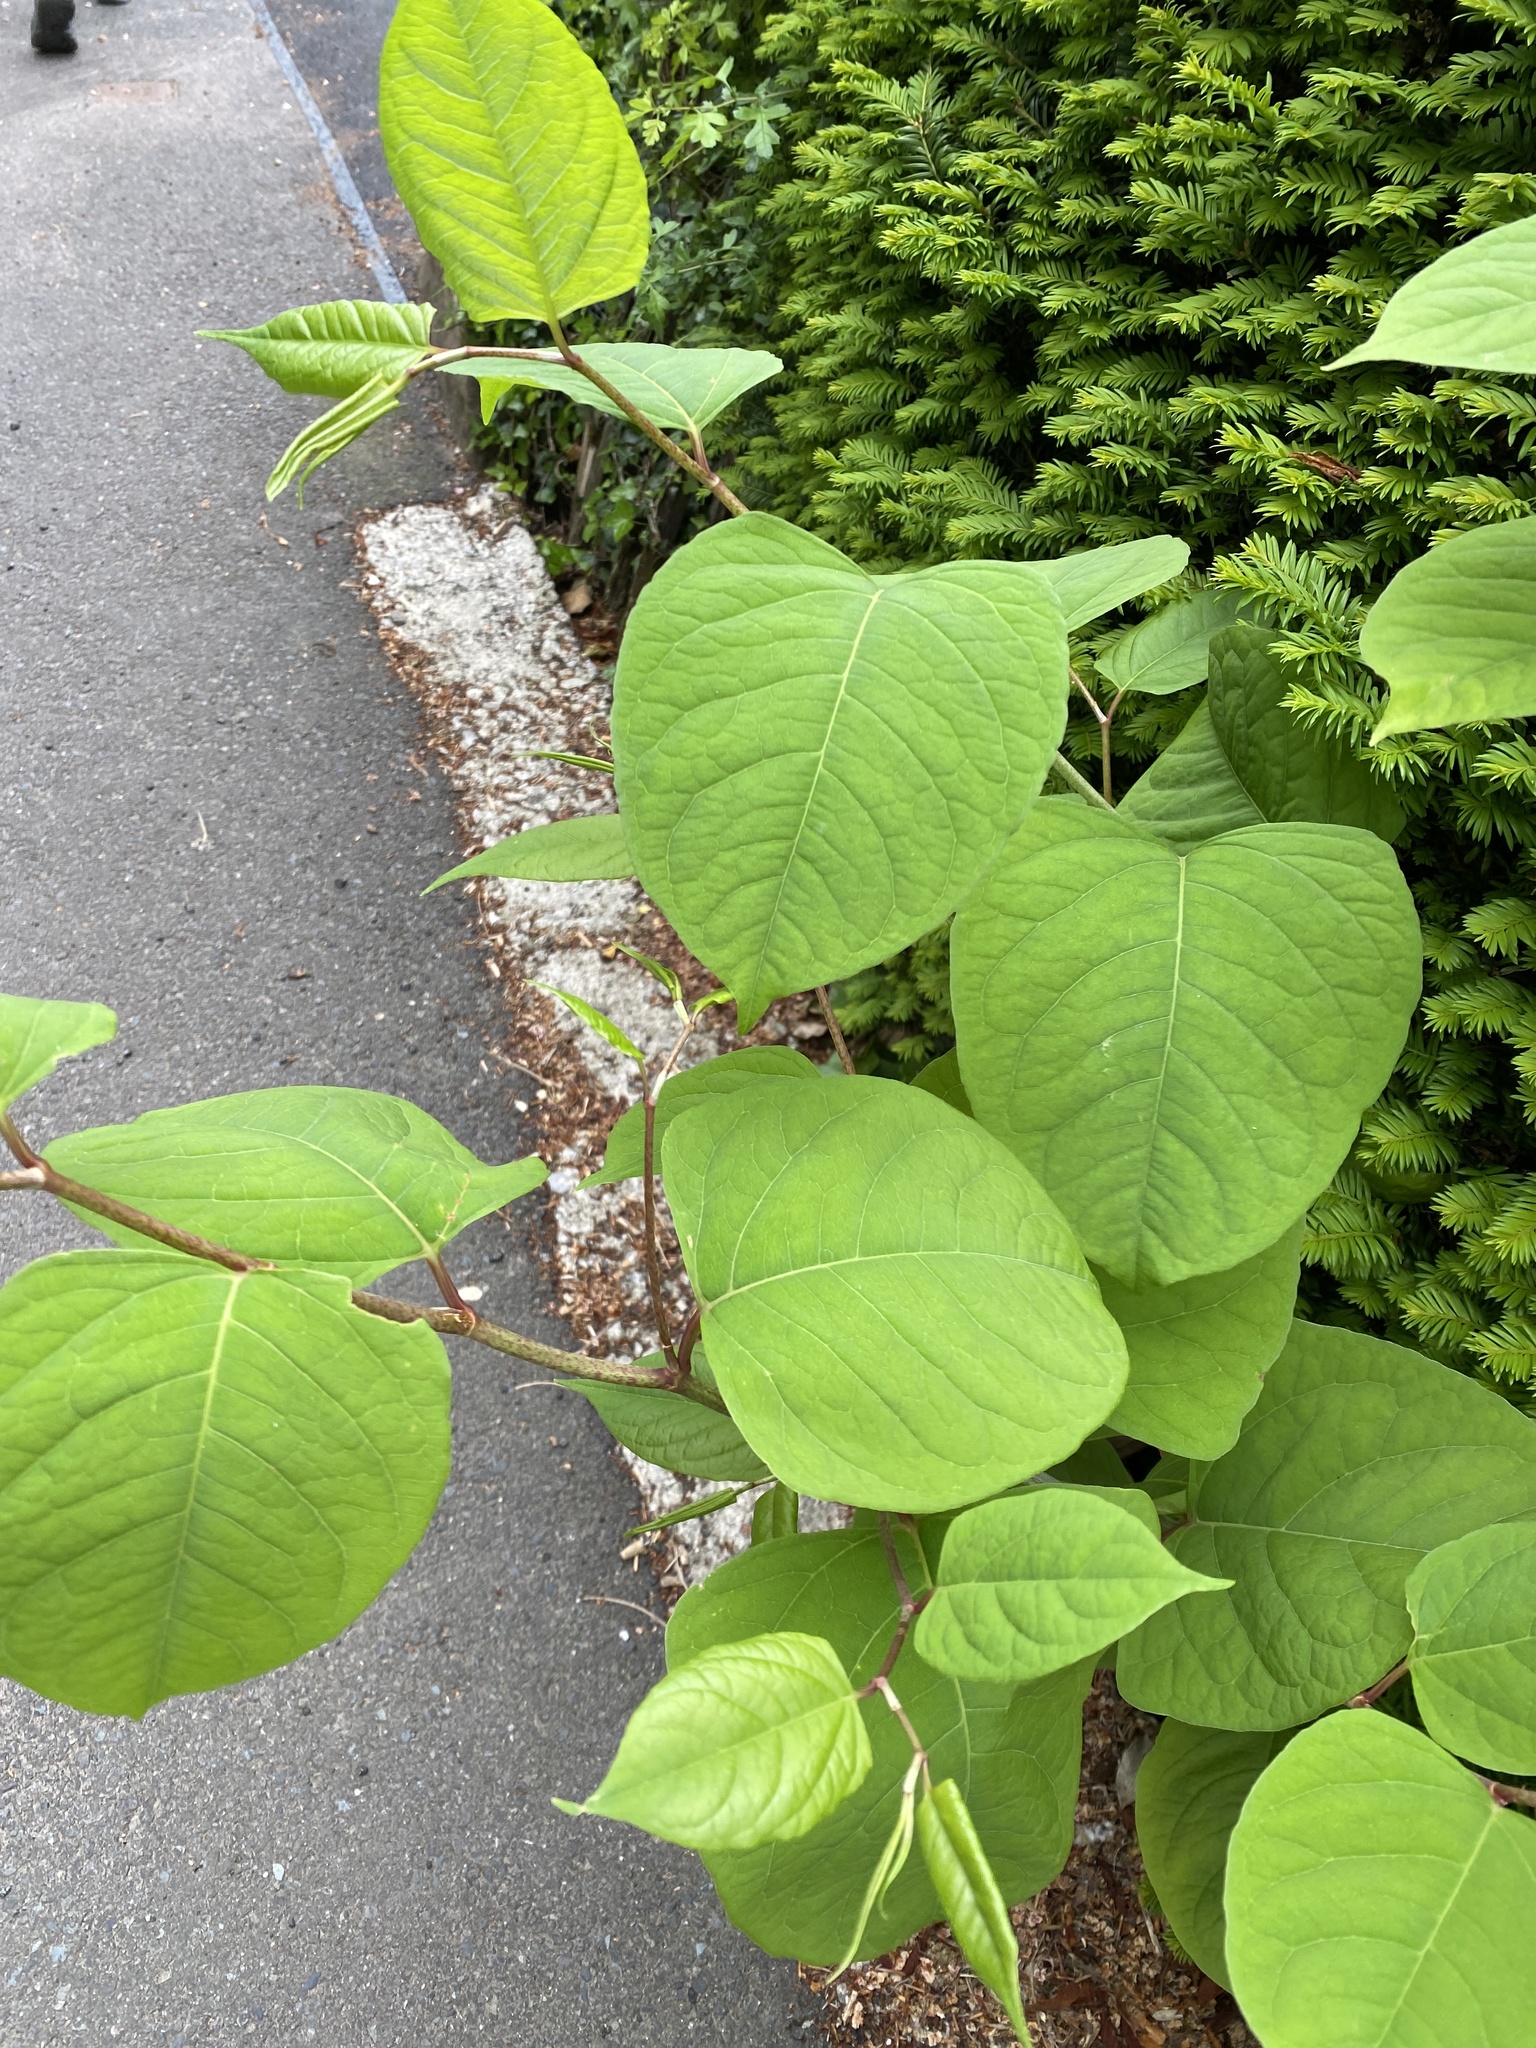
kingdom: Plantae
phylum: Tracheophyta
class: Magnoliopsida
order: Caryophyllales
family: Polygonaceae
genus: Reynoutria
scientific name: Reynoutria japonica
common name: Japanese knotweed
